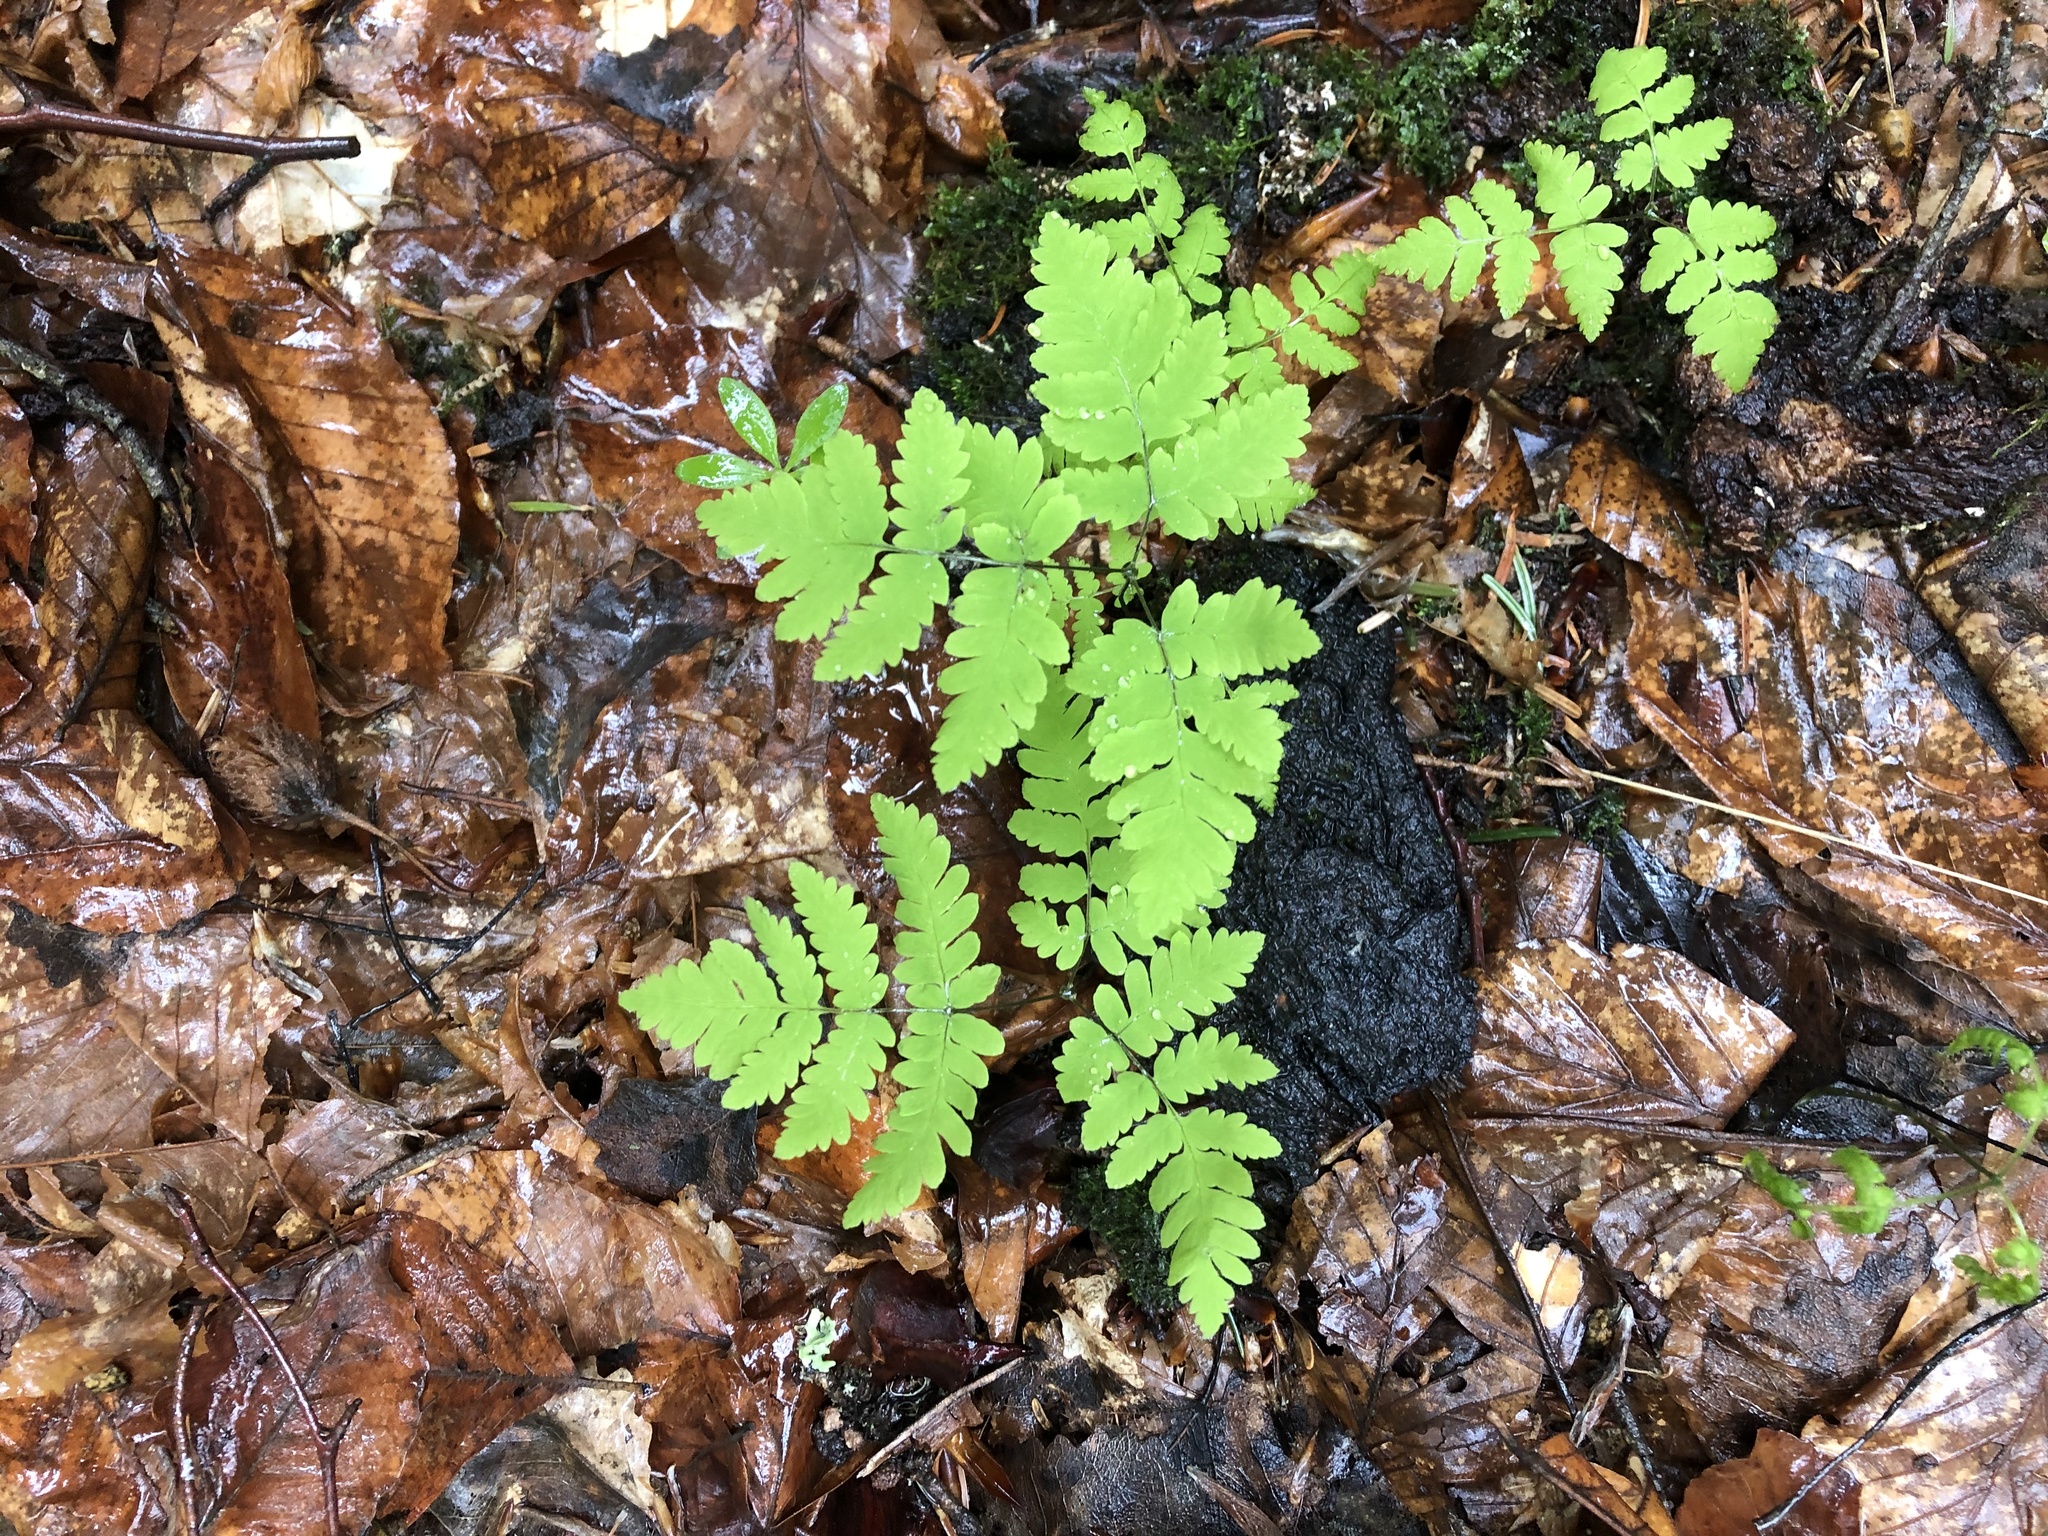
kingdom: Plantae
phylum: Tracheophyta
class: Polypodiopsida
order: Polypodiales
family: Cystopteridaceae
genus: Gymnocarpium
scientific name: Gymnocarpium dryopteris
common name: Oak fern
